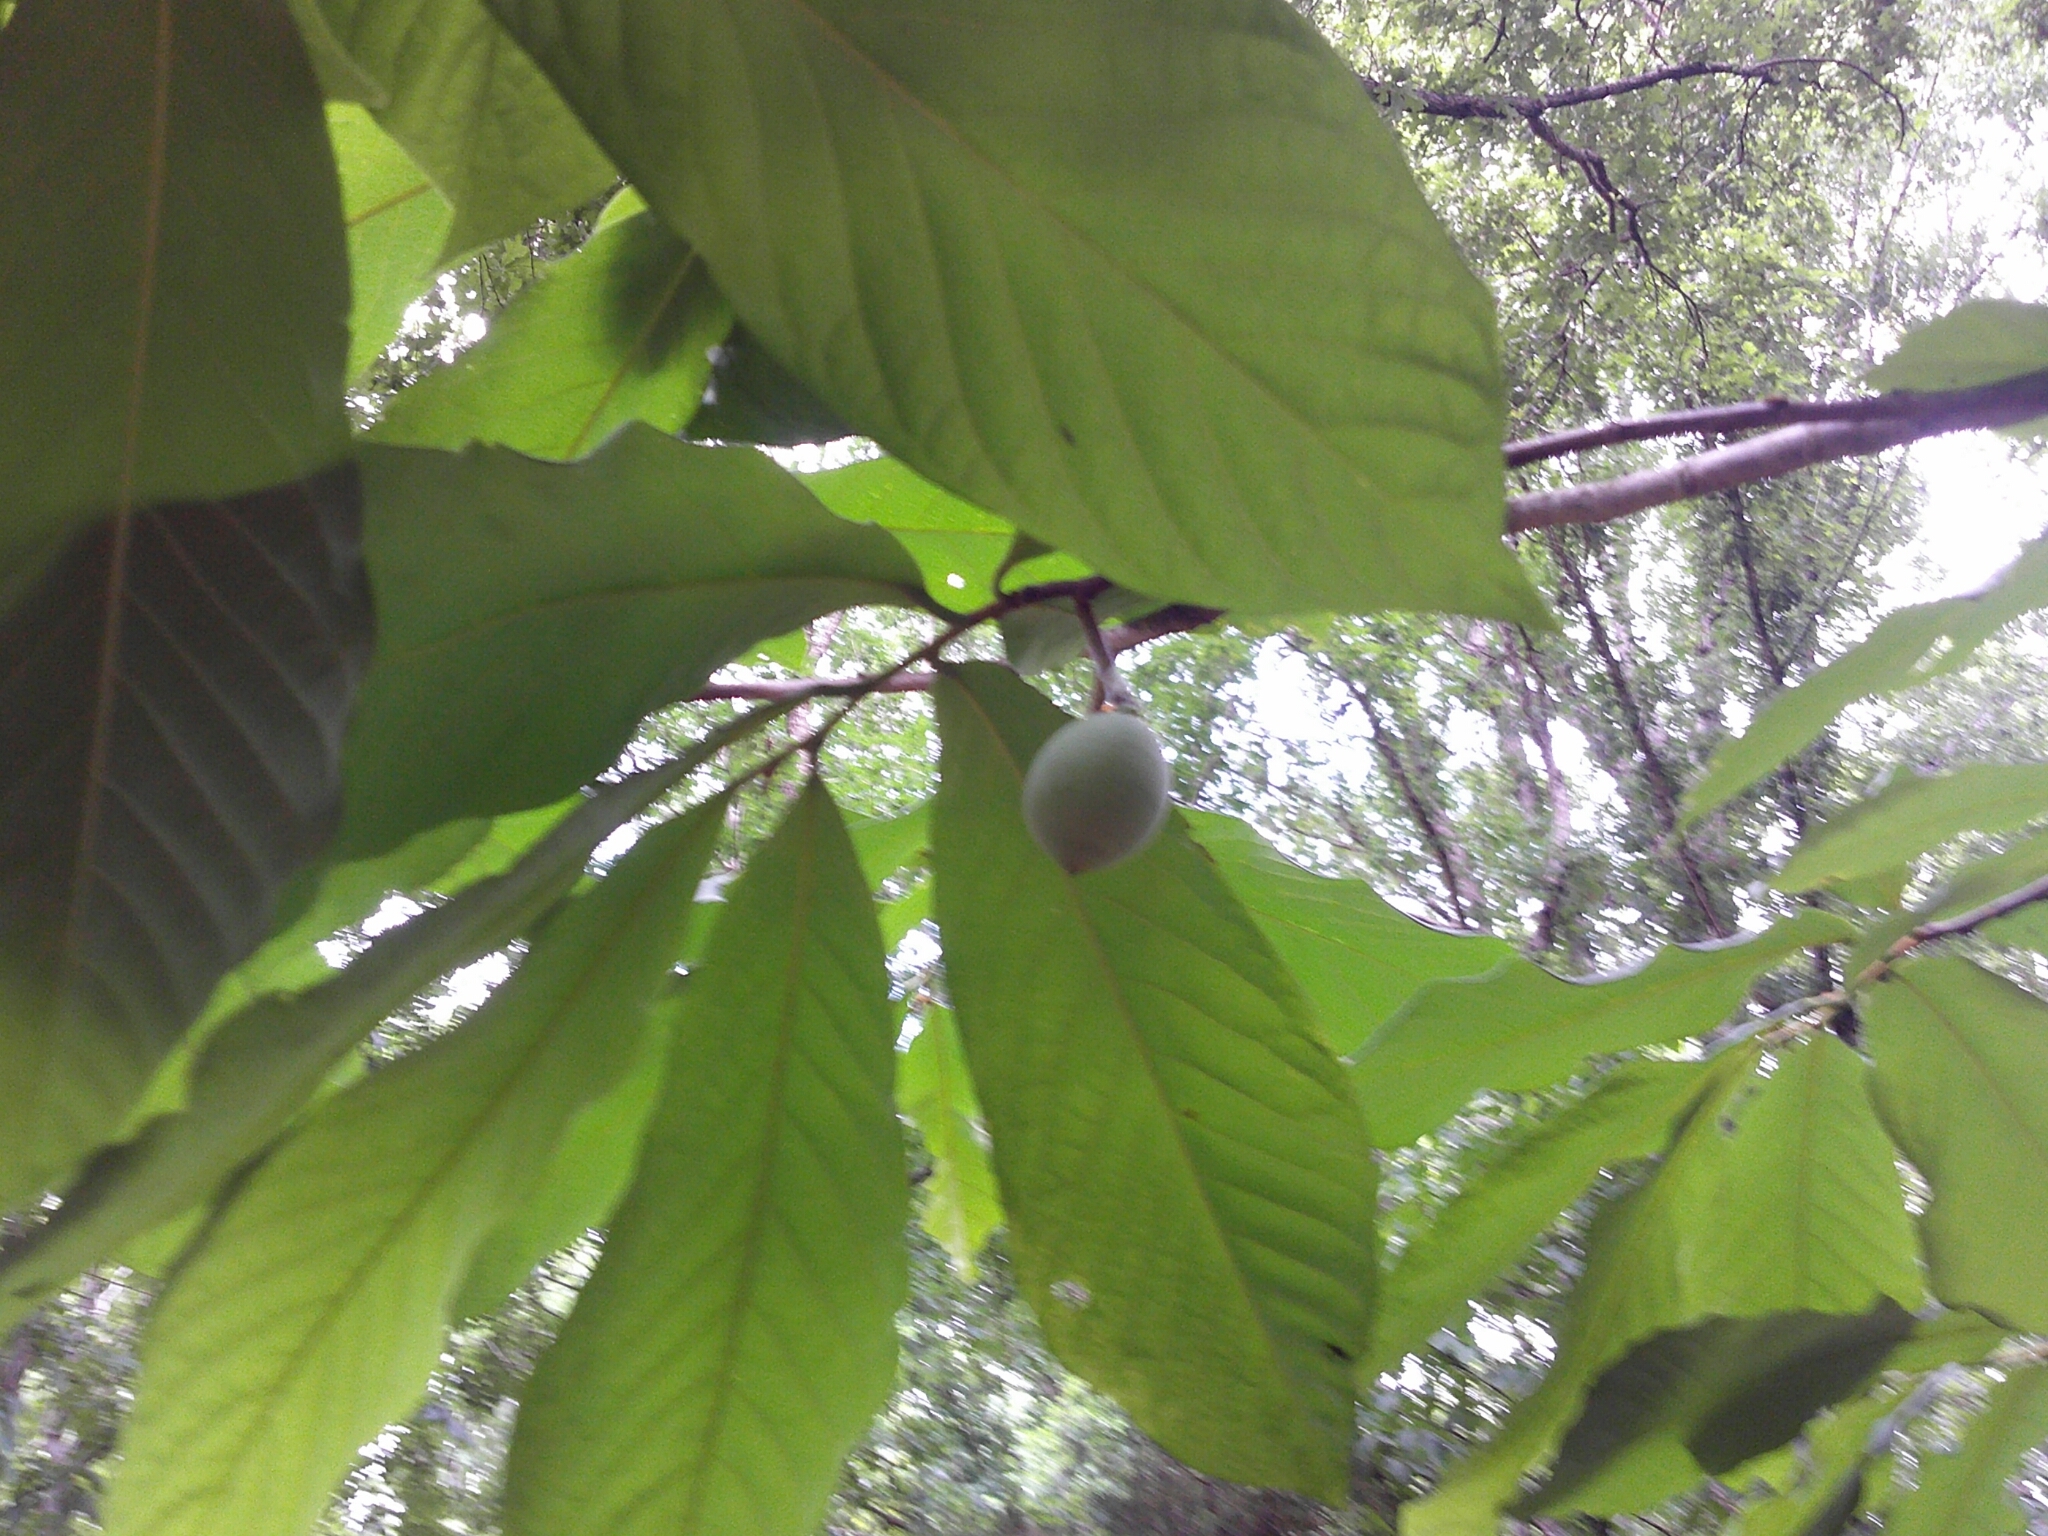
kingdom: Plantae
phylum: Tracheophyta
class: Magnoliopsida
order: Magnoliales
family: Annonaceae
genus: Asimina
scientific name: Asimina triloba
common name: Dog-banana
